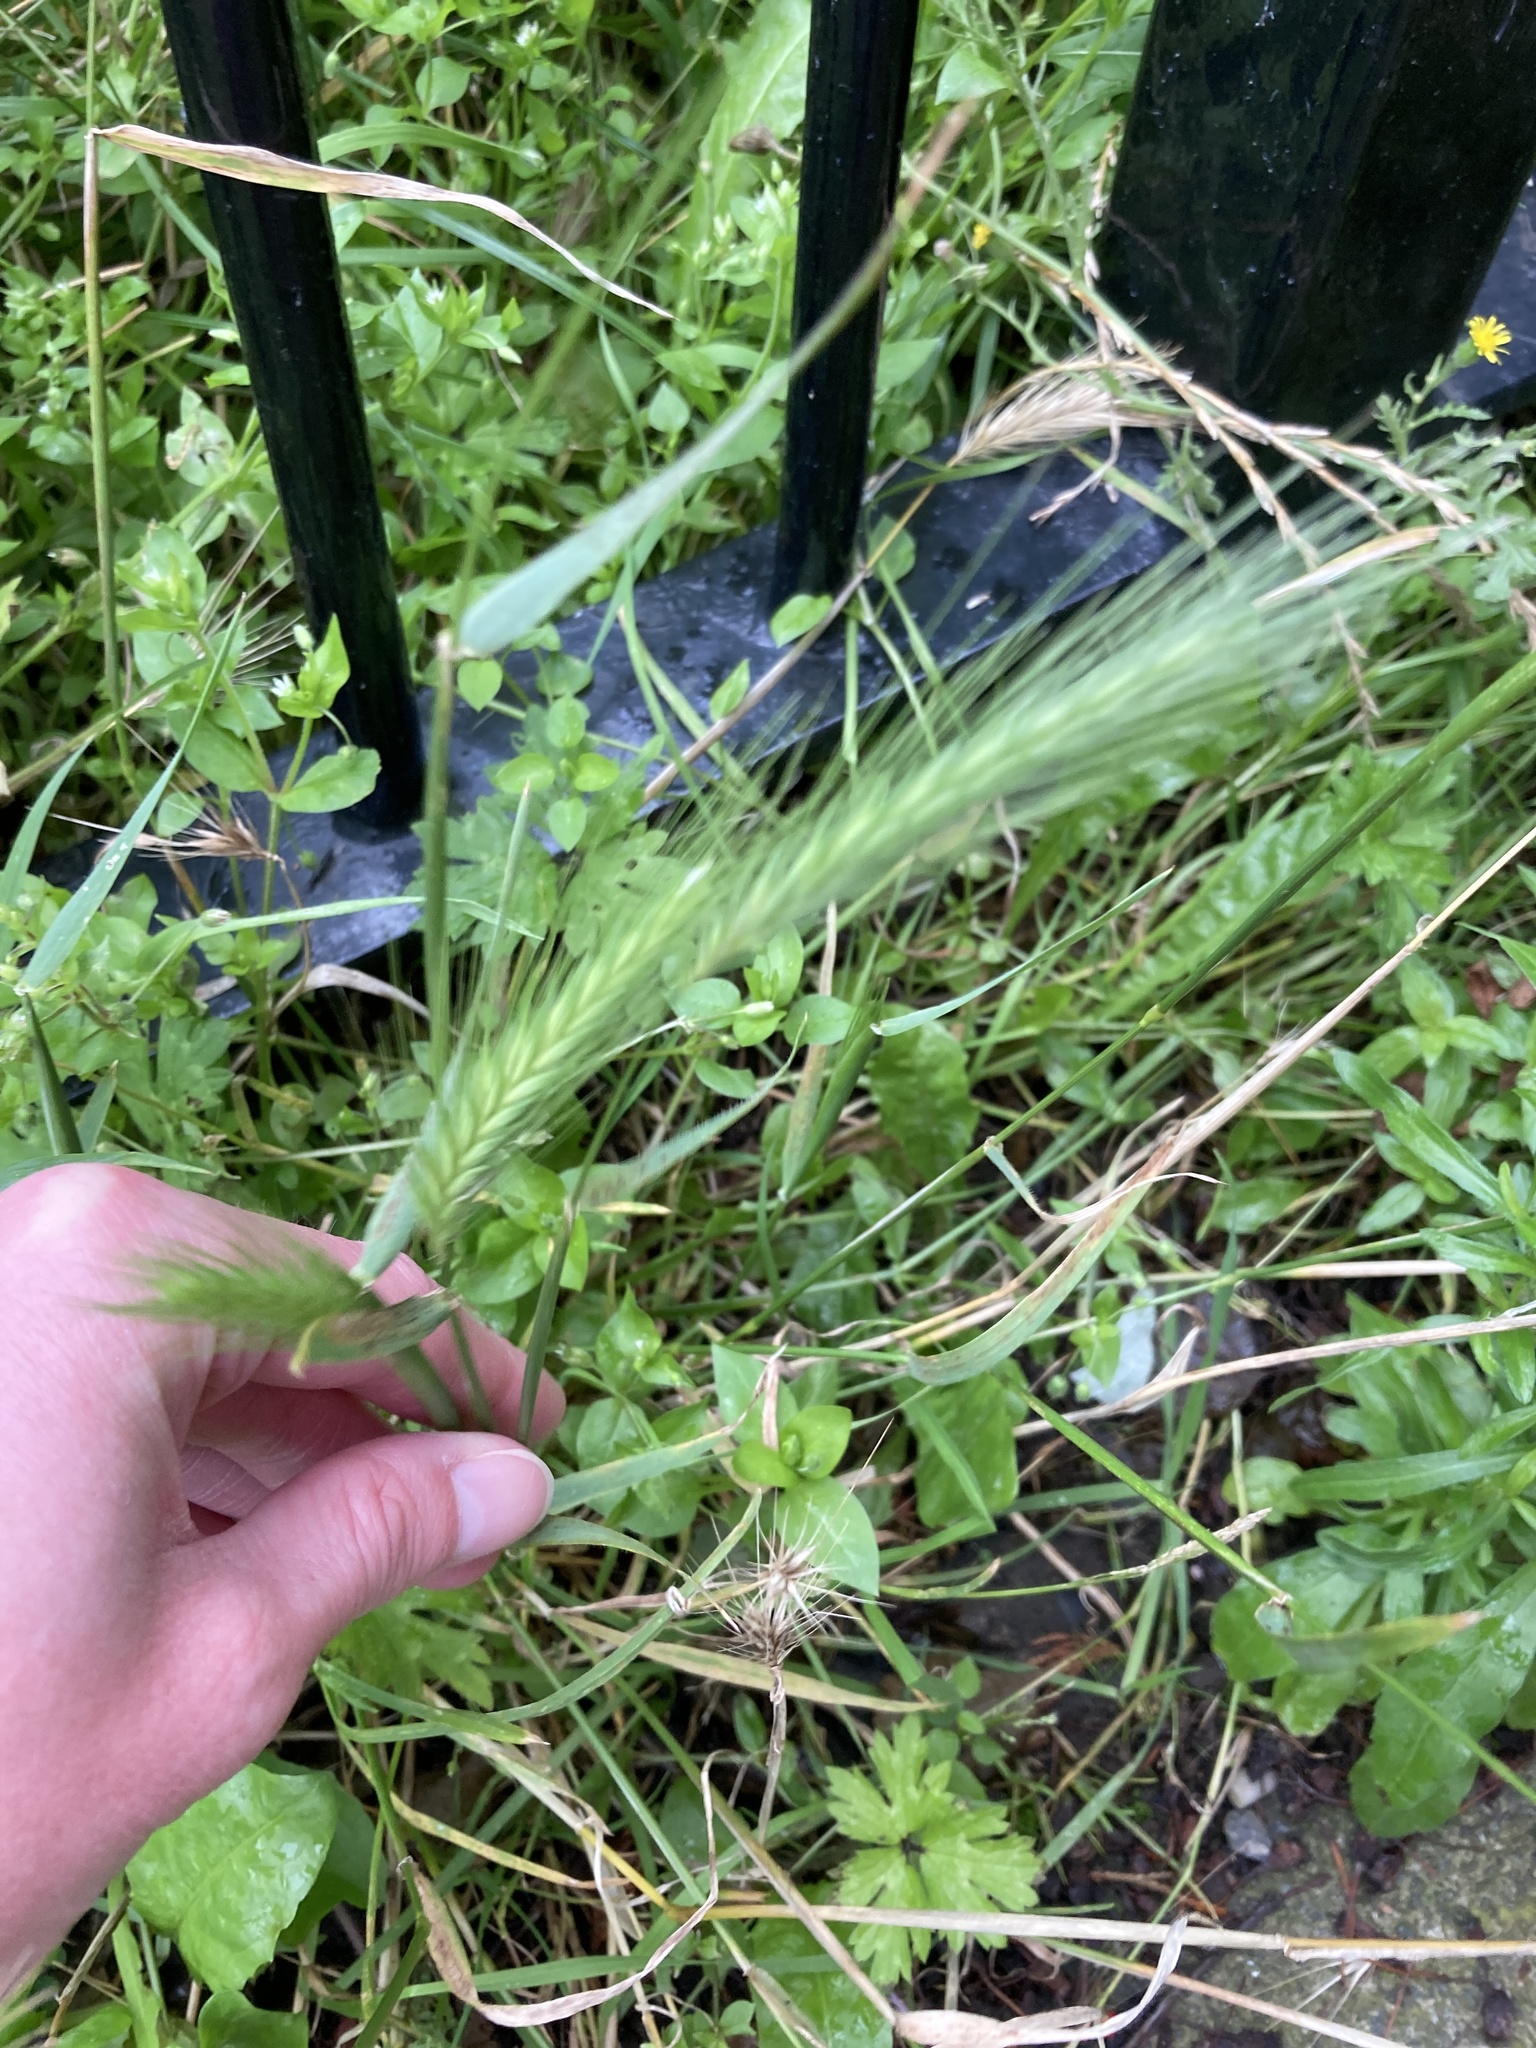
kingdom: Plantae
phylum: Tracheophyta
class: Liliopsida
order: Poales
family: Poaceae
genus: Hordeum
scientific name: Hordeum murinum
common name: Wall barley
